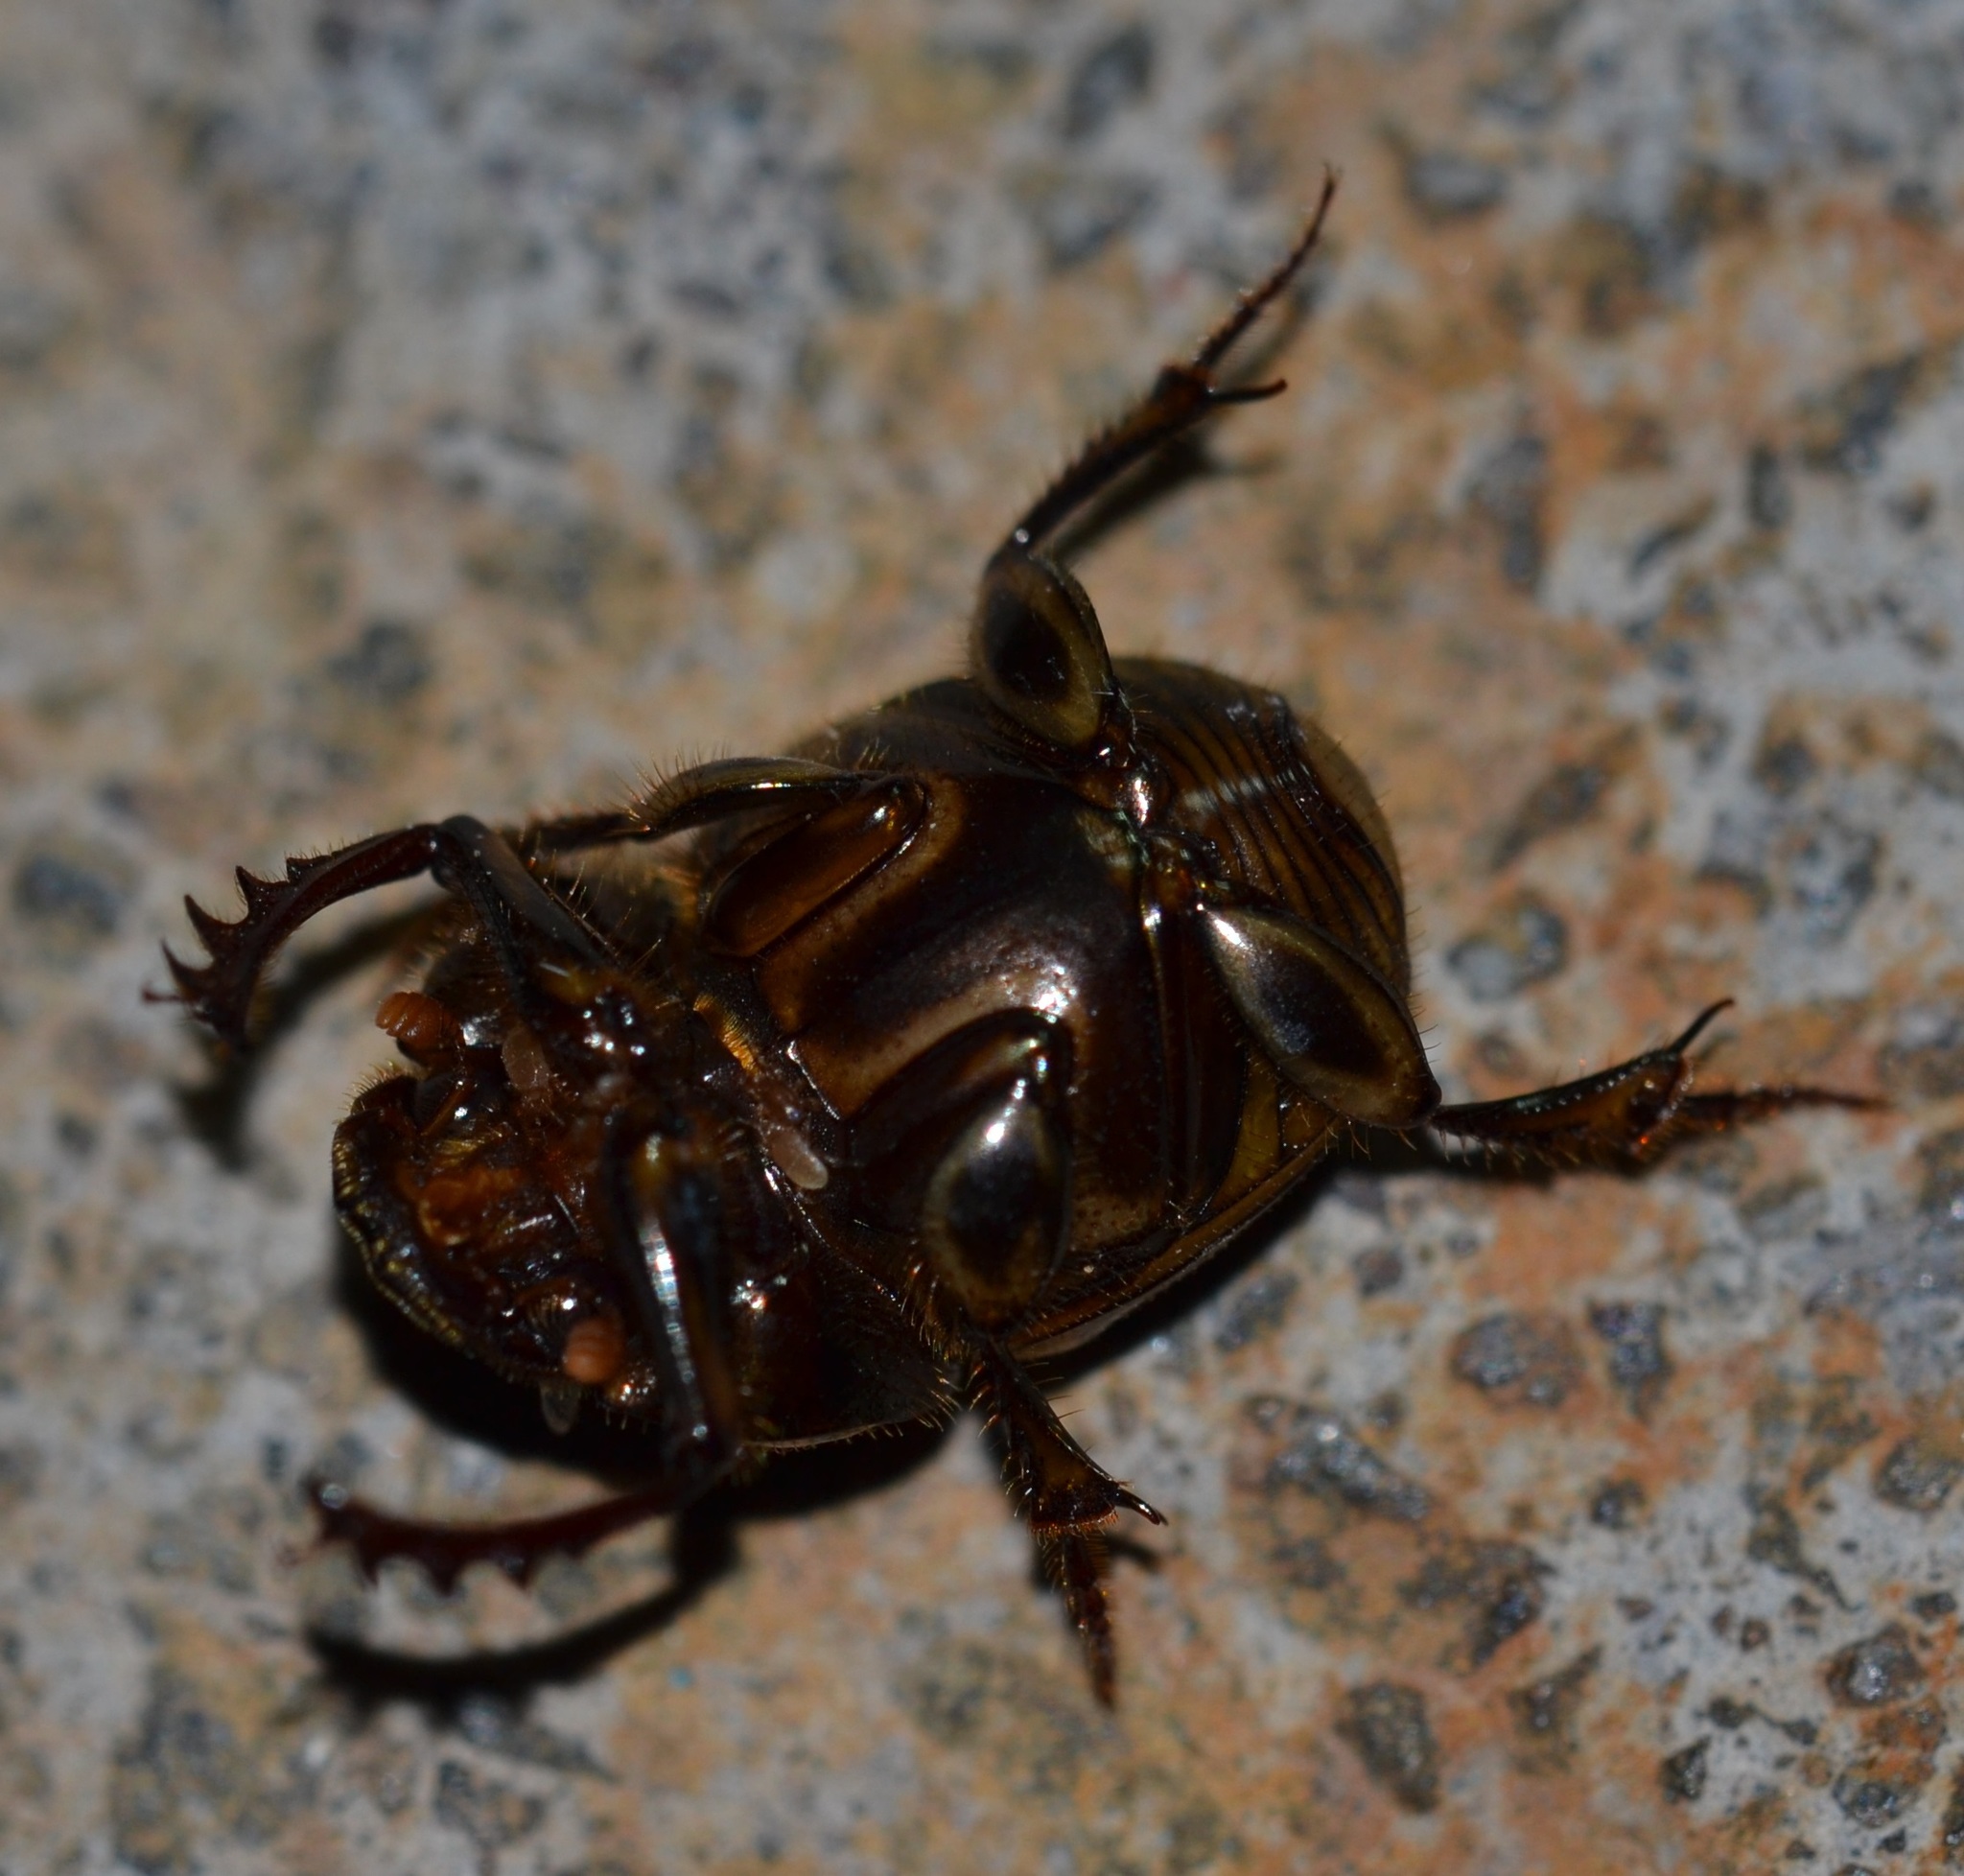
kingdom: Animalia
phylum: Arthropoda
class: Insecta
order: Coleoptera
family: Scarabaeidae
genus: Digitonthophagus
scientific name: Digitonthophagus gazella
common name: Brown dung beetle
